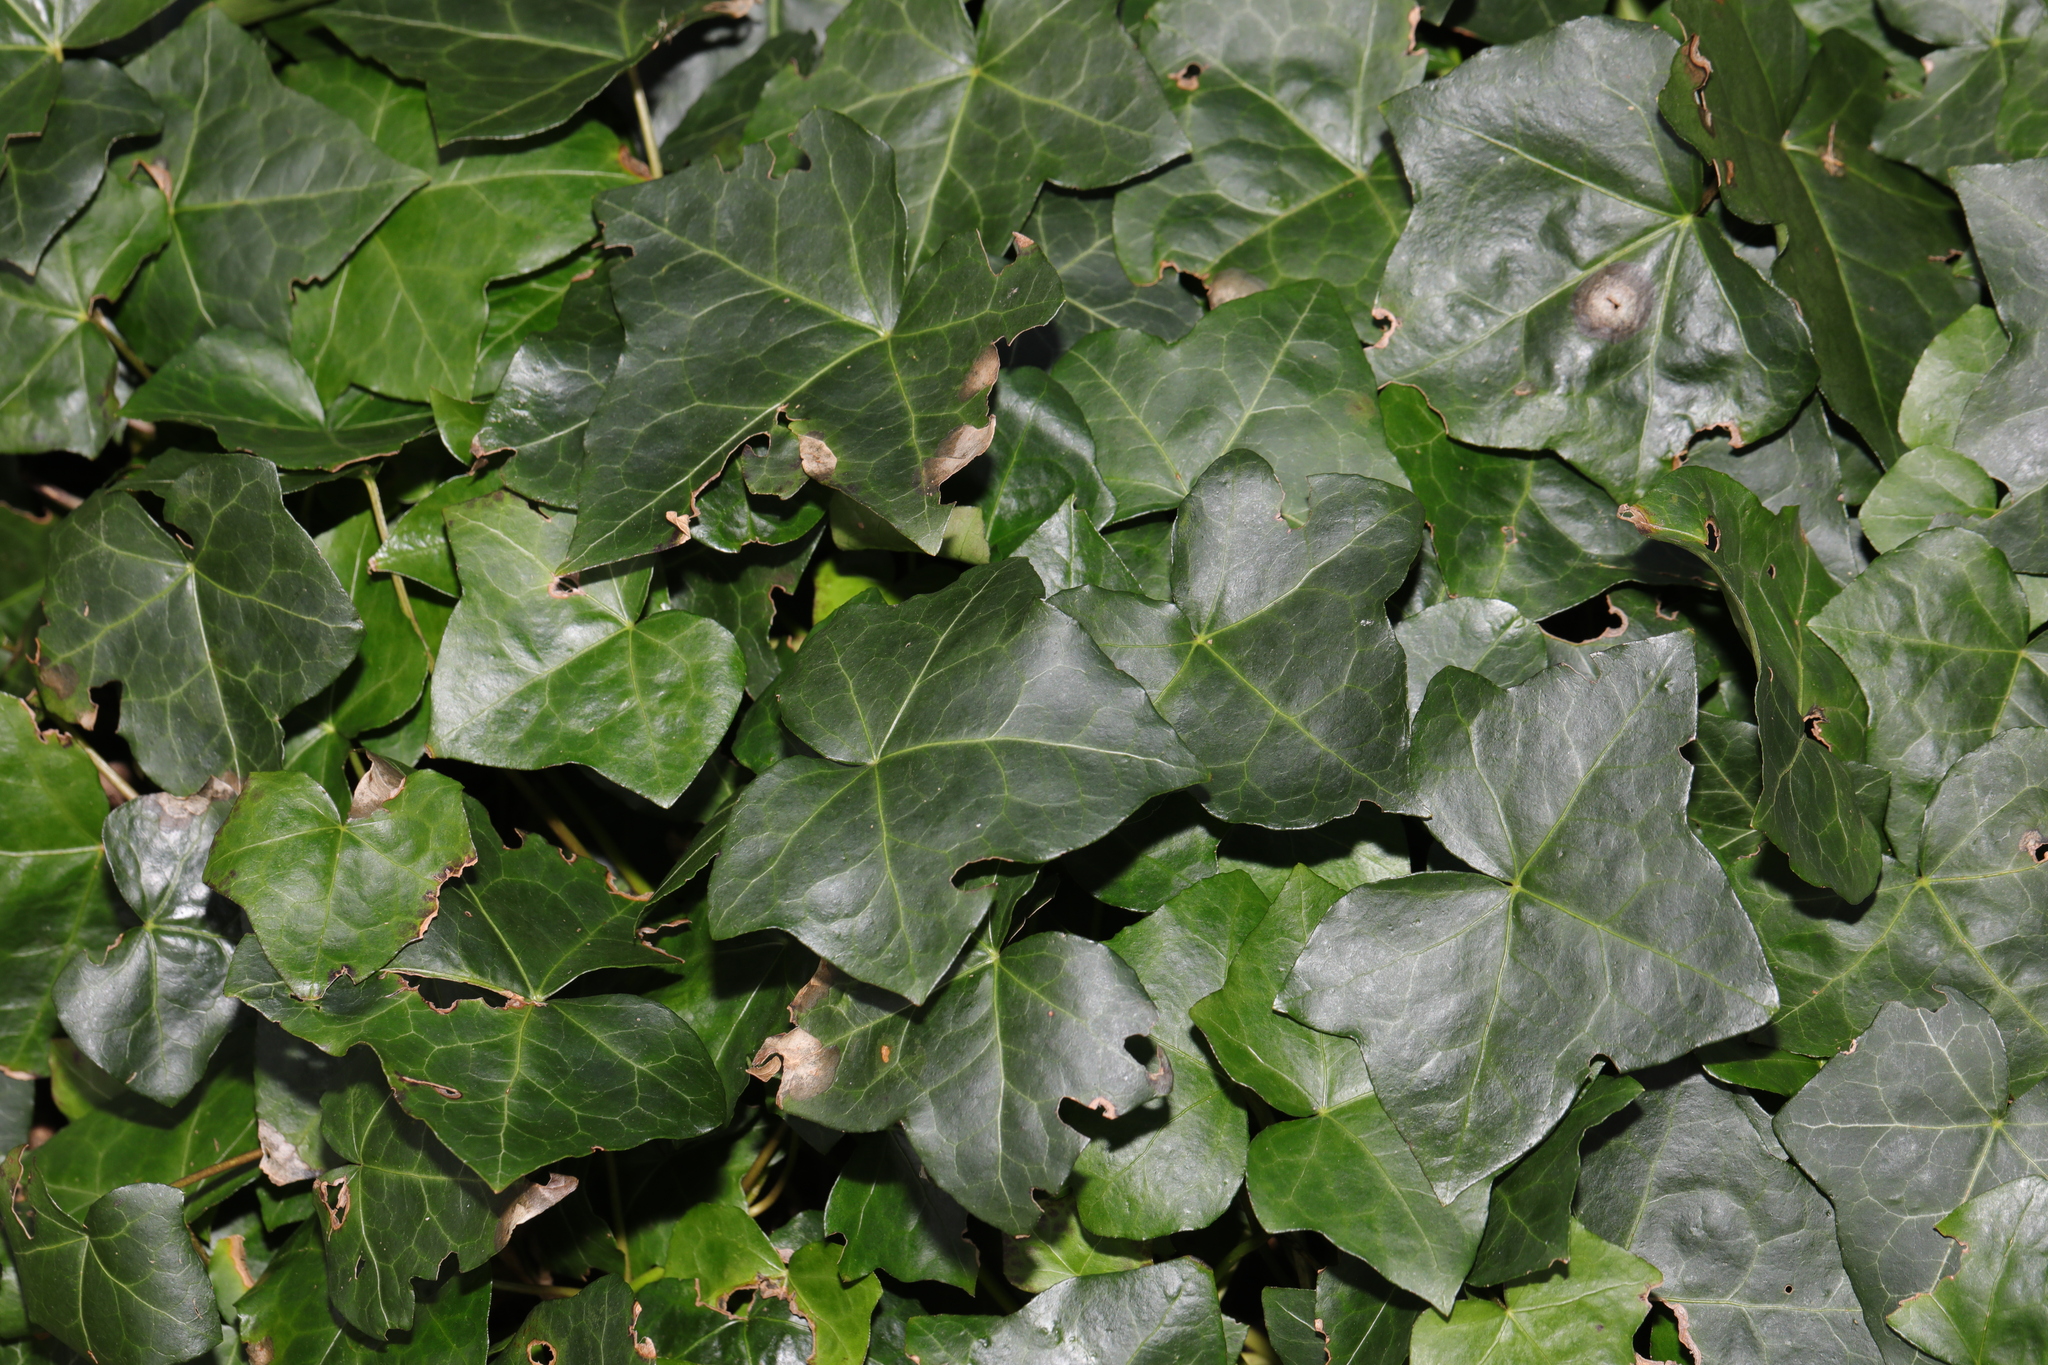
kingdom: Plantae
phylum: Tracheophyta
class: Magnoliopsida
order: Apiales
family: Araliaceae
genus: Hedera
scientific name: Hedera helix
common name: Ivy
